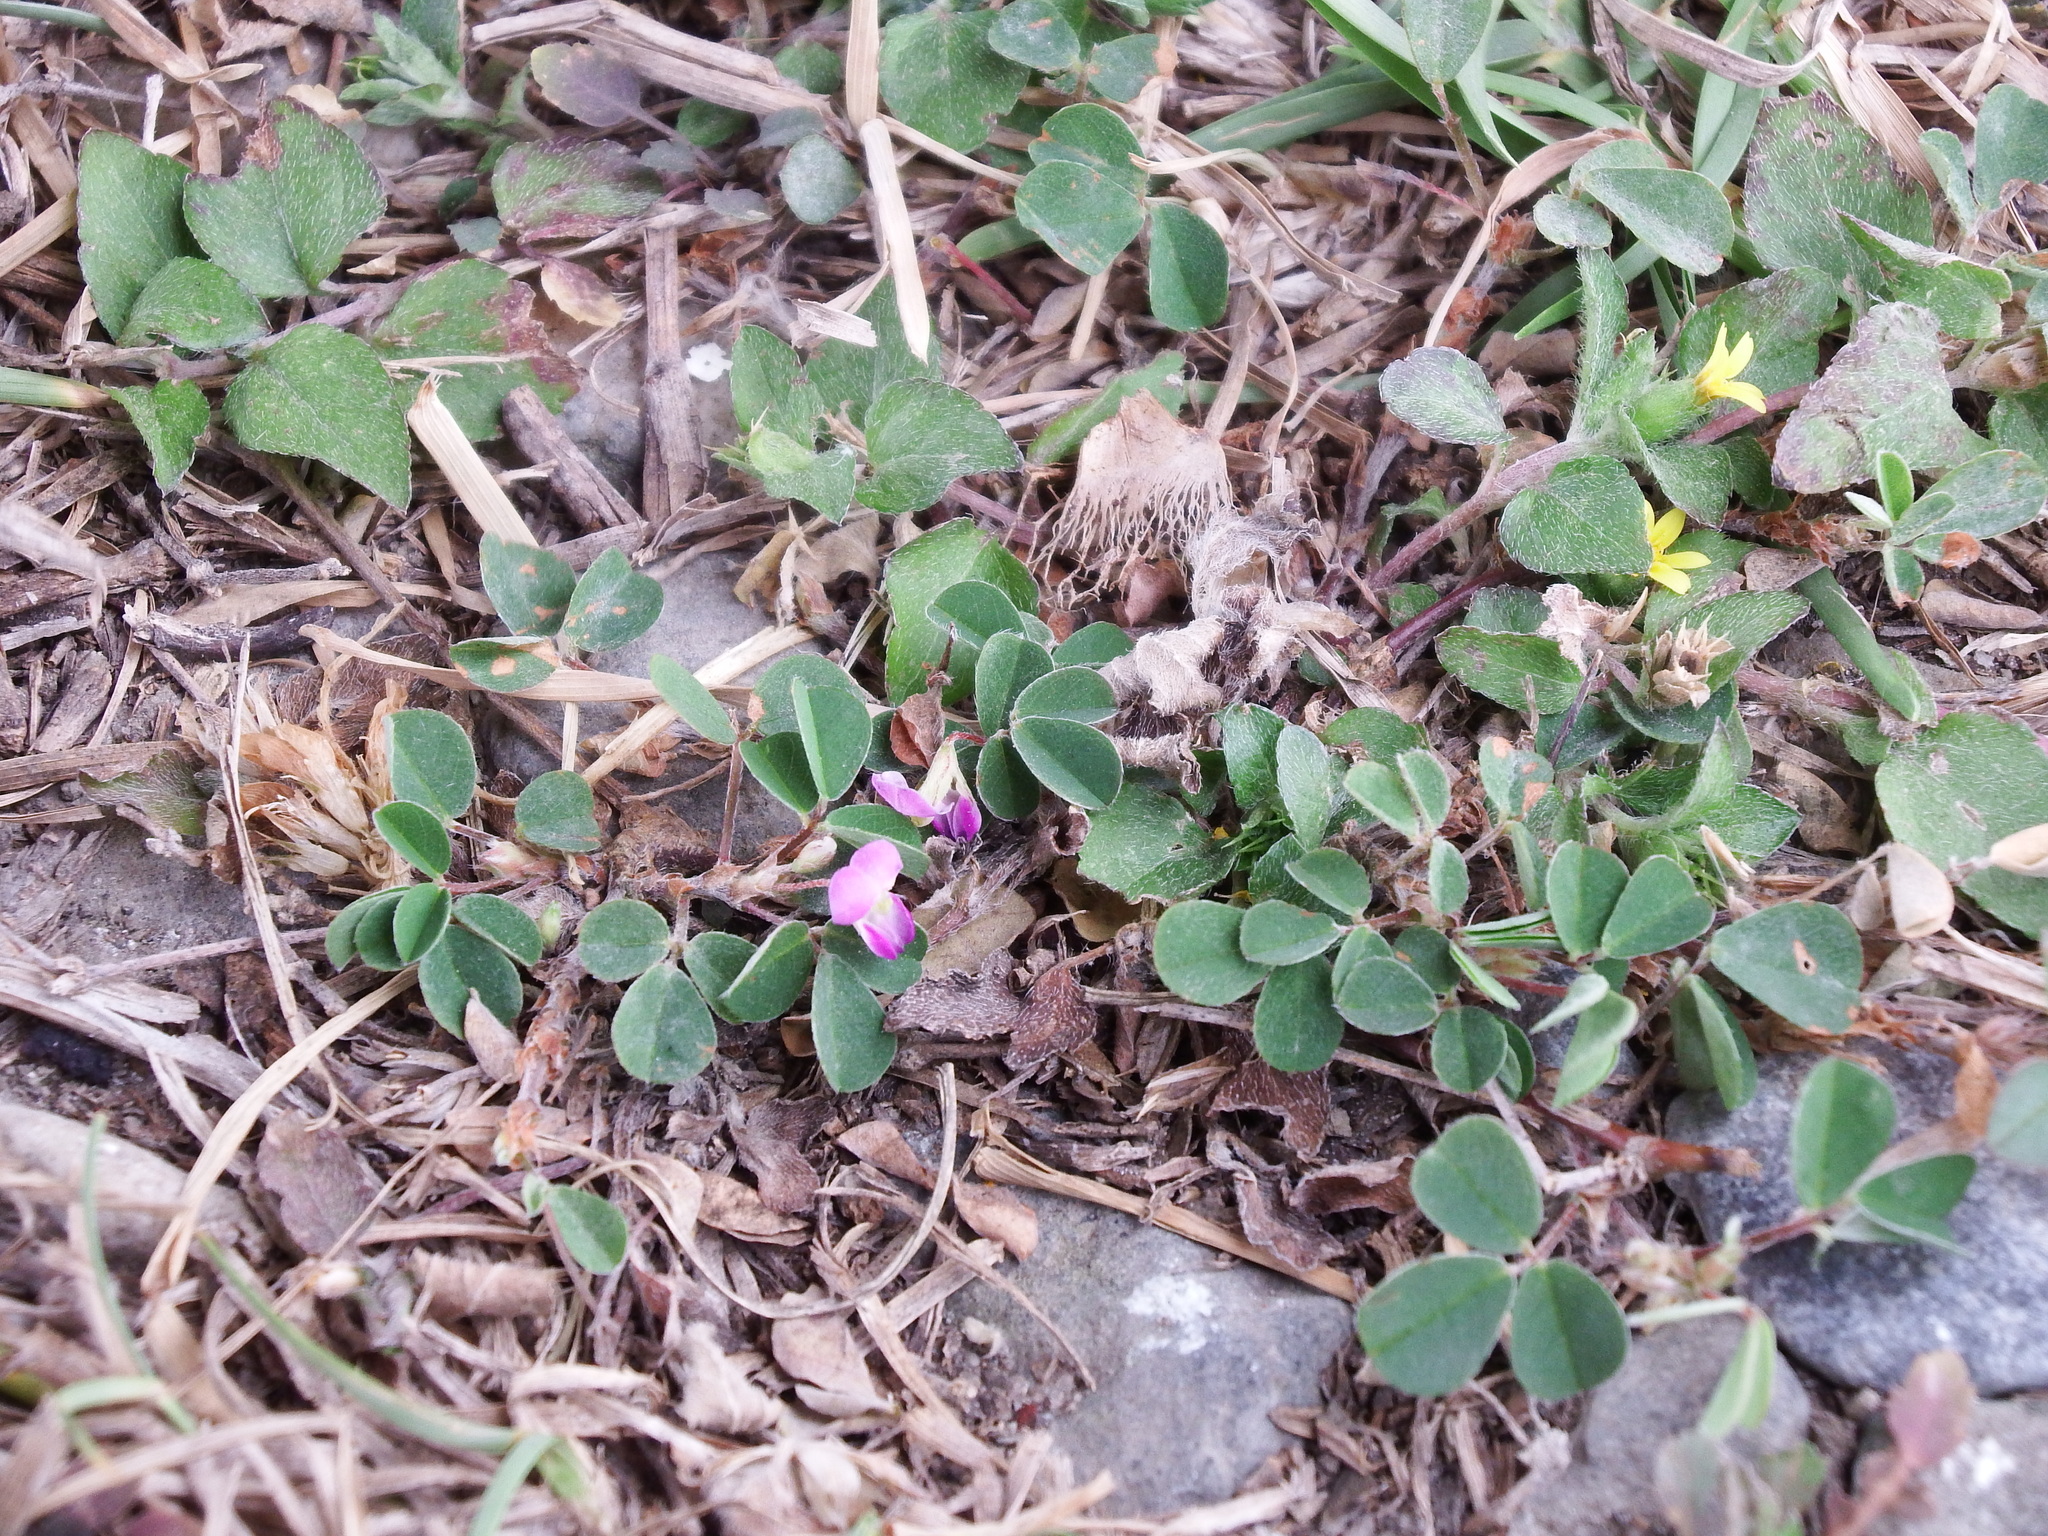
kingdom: Plantae
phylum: Tracheophyta
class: Magnoliopsida
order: Oxalidales
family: Oxalidaceae
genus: Oxalis
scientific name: Oxalis corniculata
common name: Procumbent yellow-sorrel
